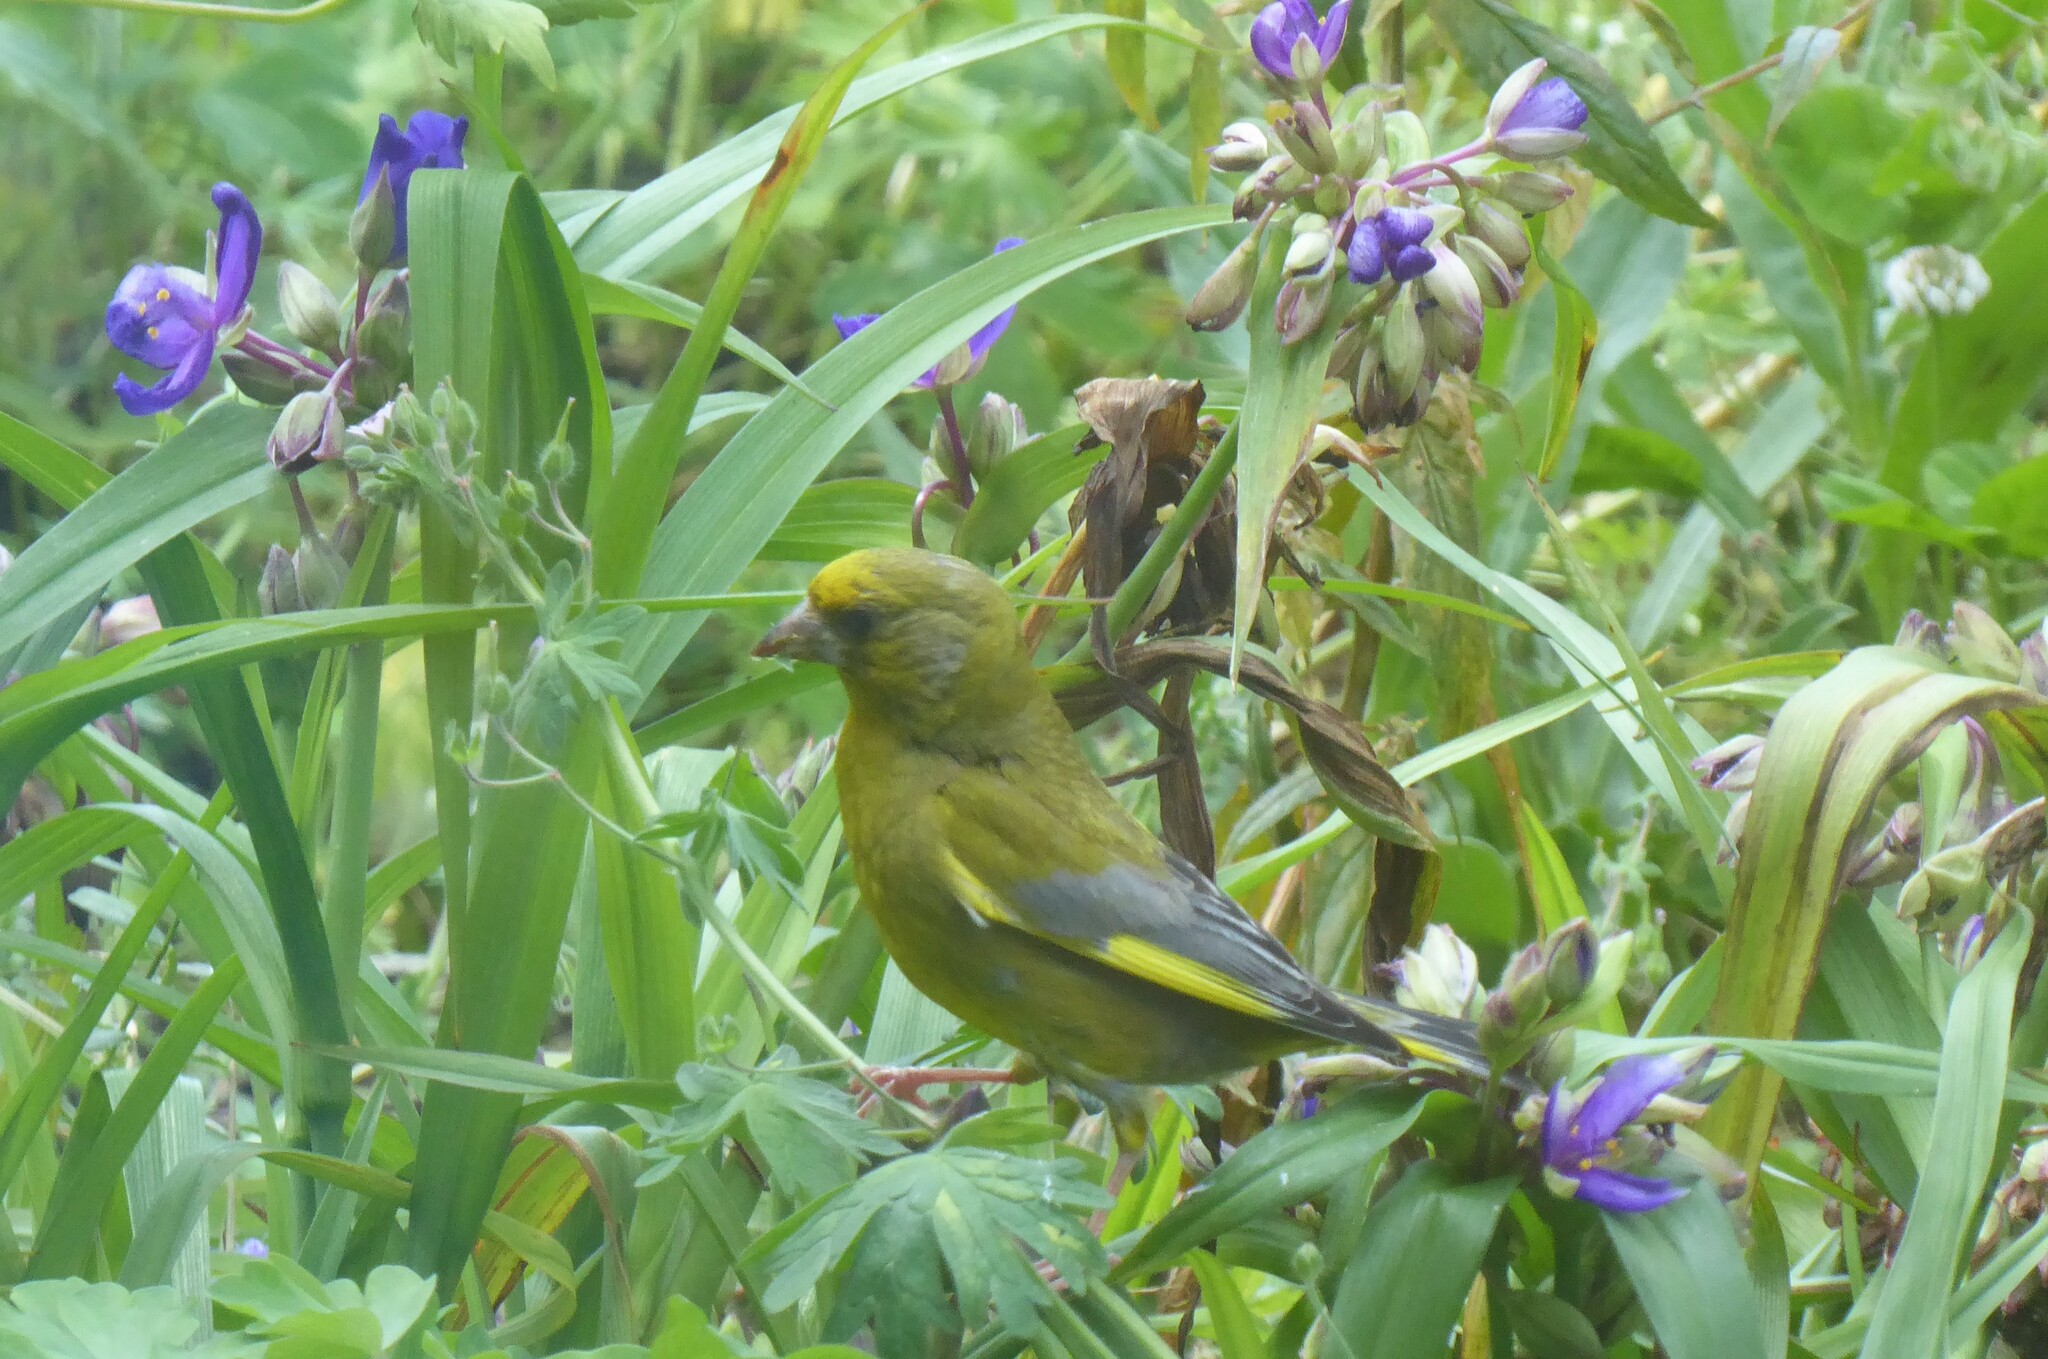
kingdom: Plantae
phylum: Tracheophyta
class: Liliopsida
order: Poales
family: Poaceae
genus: Chloris
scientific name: Chloris chloris
